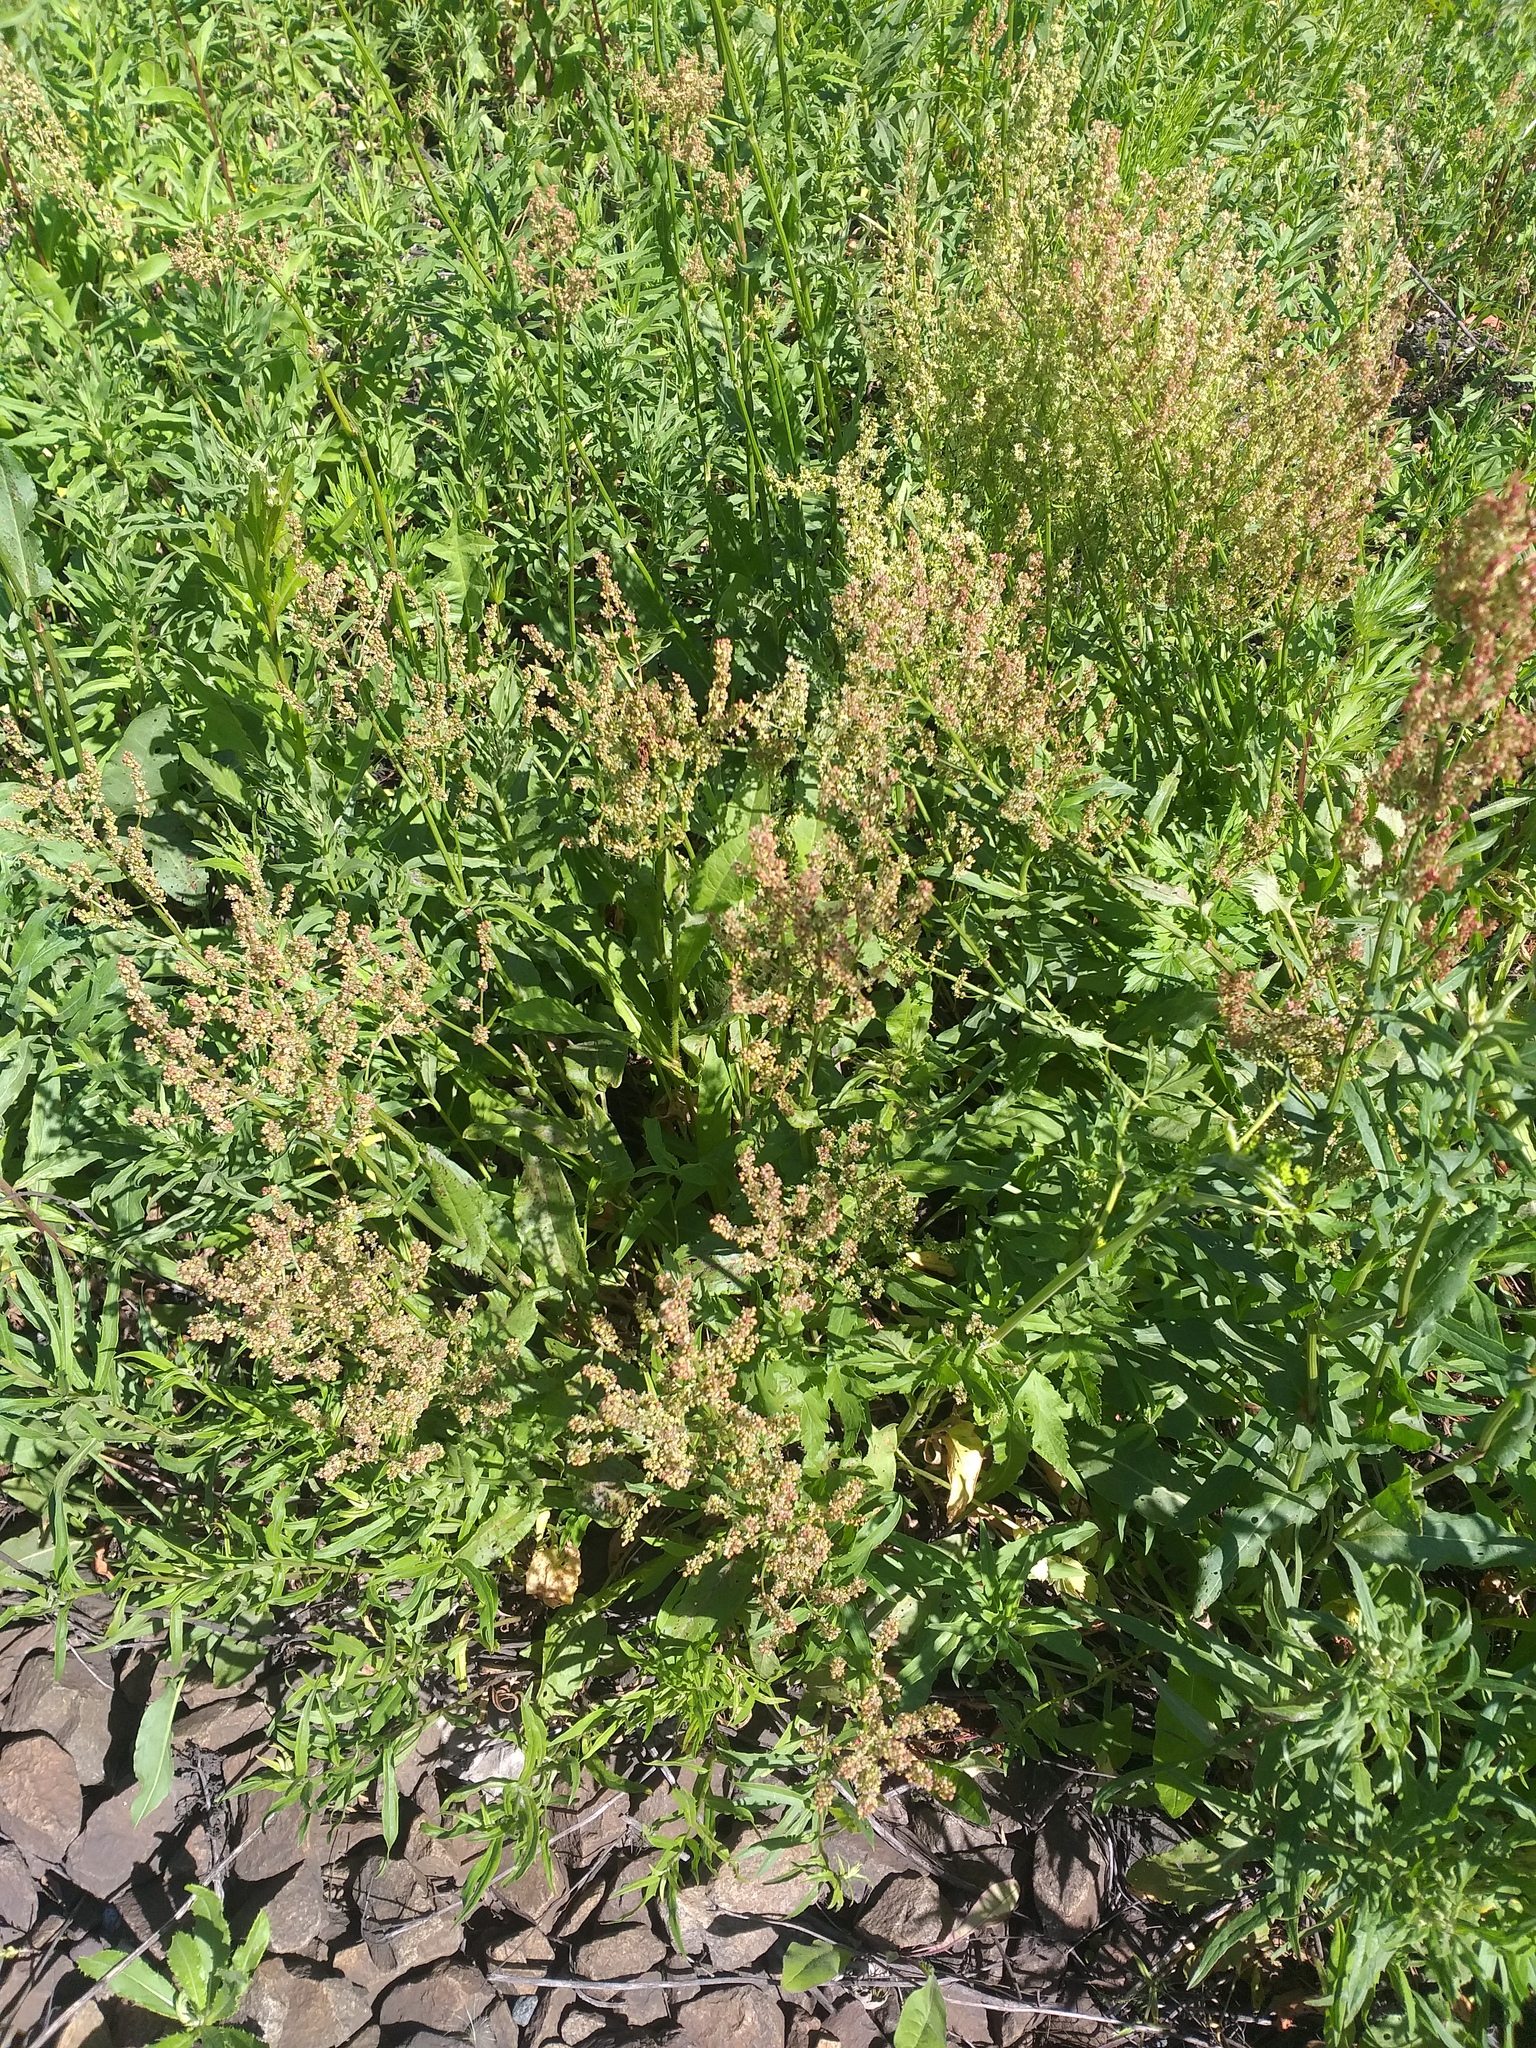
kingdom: Plantae
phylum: Tracheophyta
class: Magnoliopsida
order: Caryophyllales
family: Polygonaceae
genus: Rumex
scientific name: Rumex thyrsiflorus
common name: Garden sorrel
